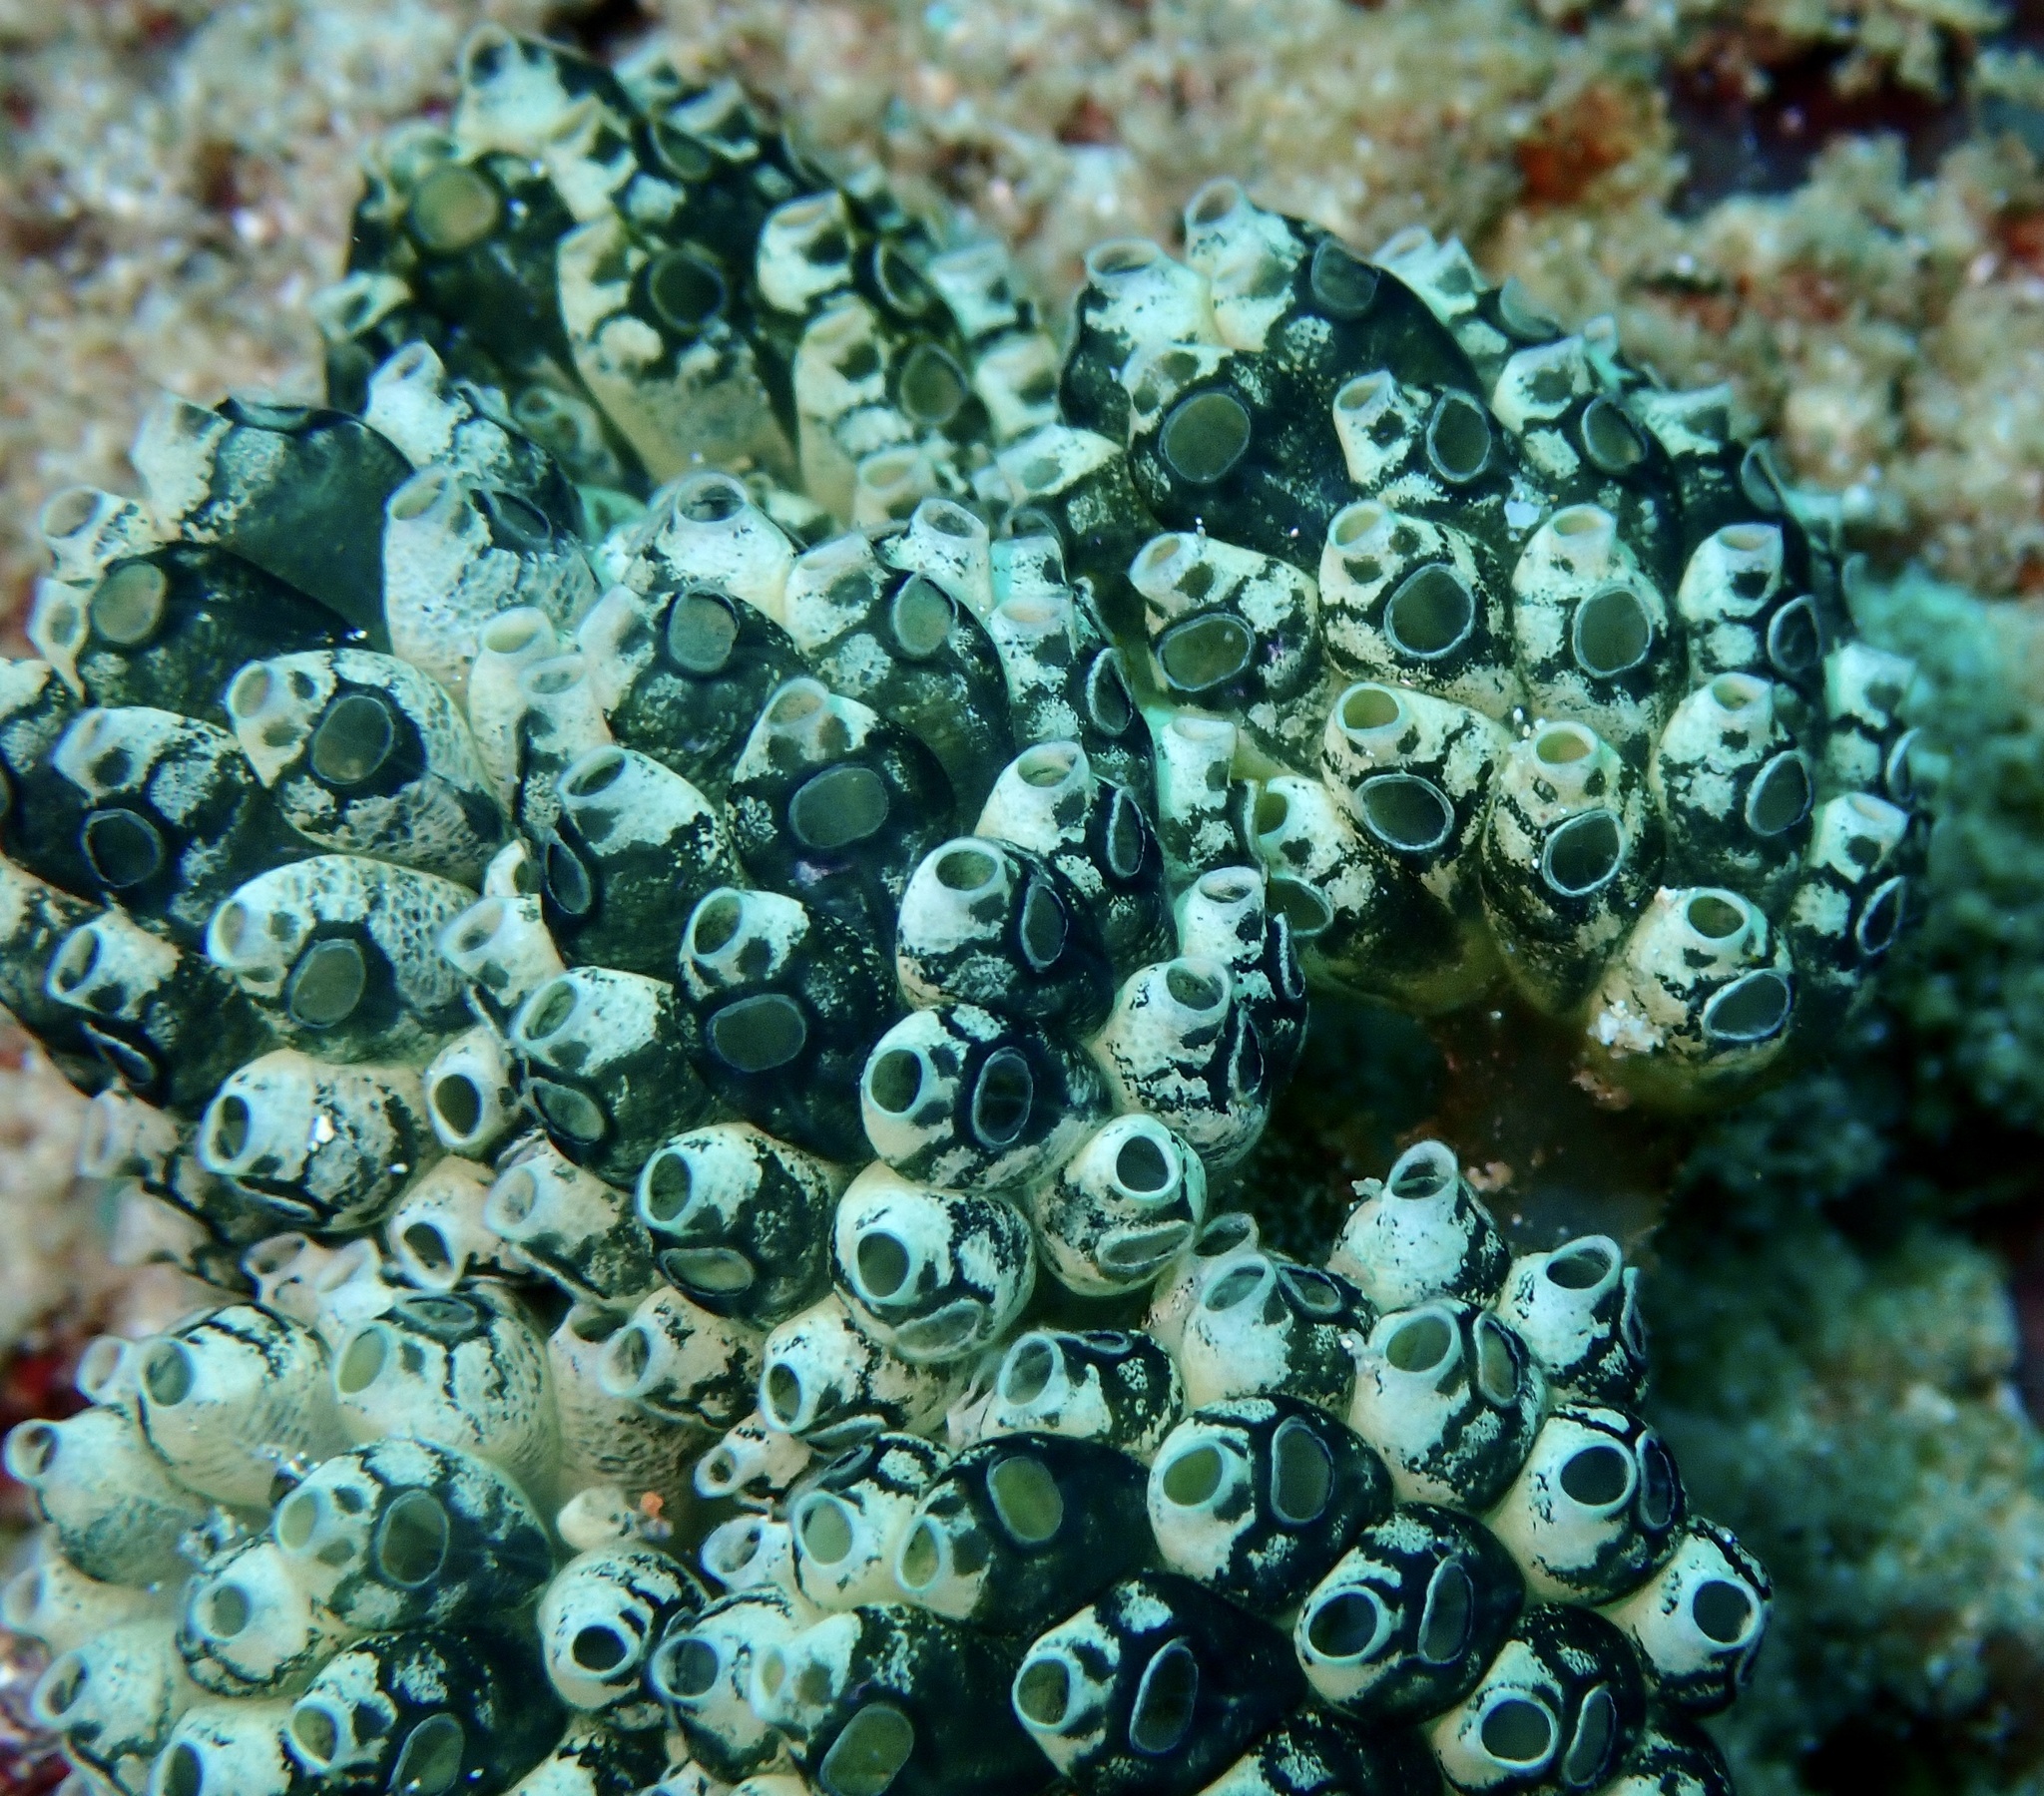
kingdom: Animalia
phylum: Chordata
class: Ascidiacea
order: Aplousobranchia
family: Clavelinidae
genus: Nephtheis
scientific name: Nephtheis fascicularis
